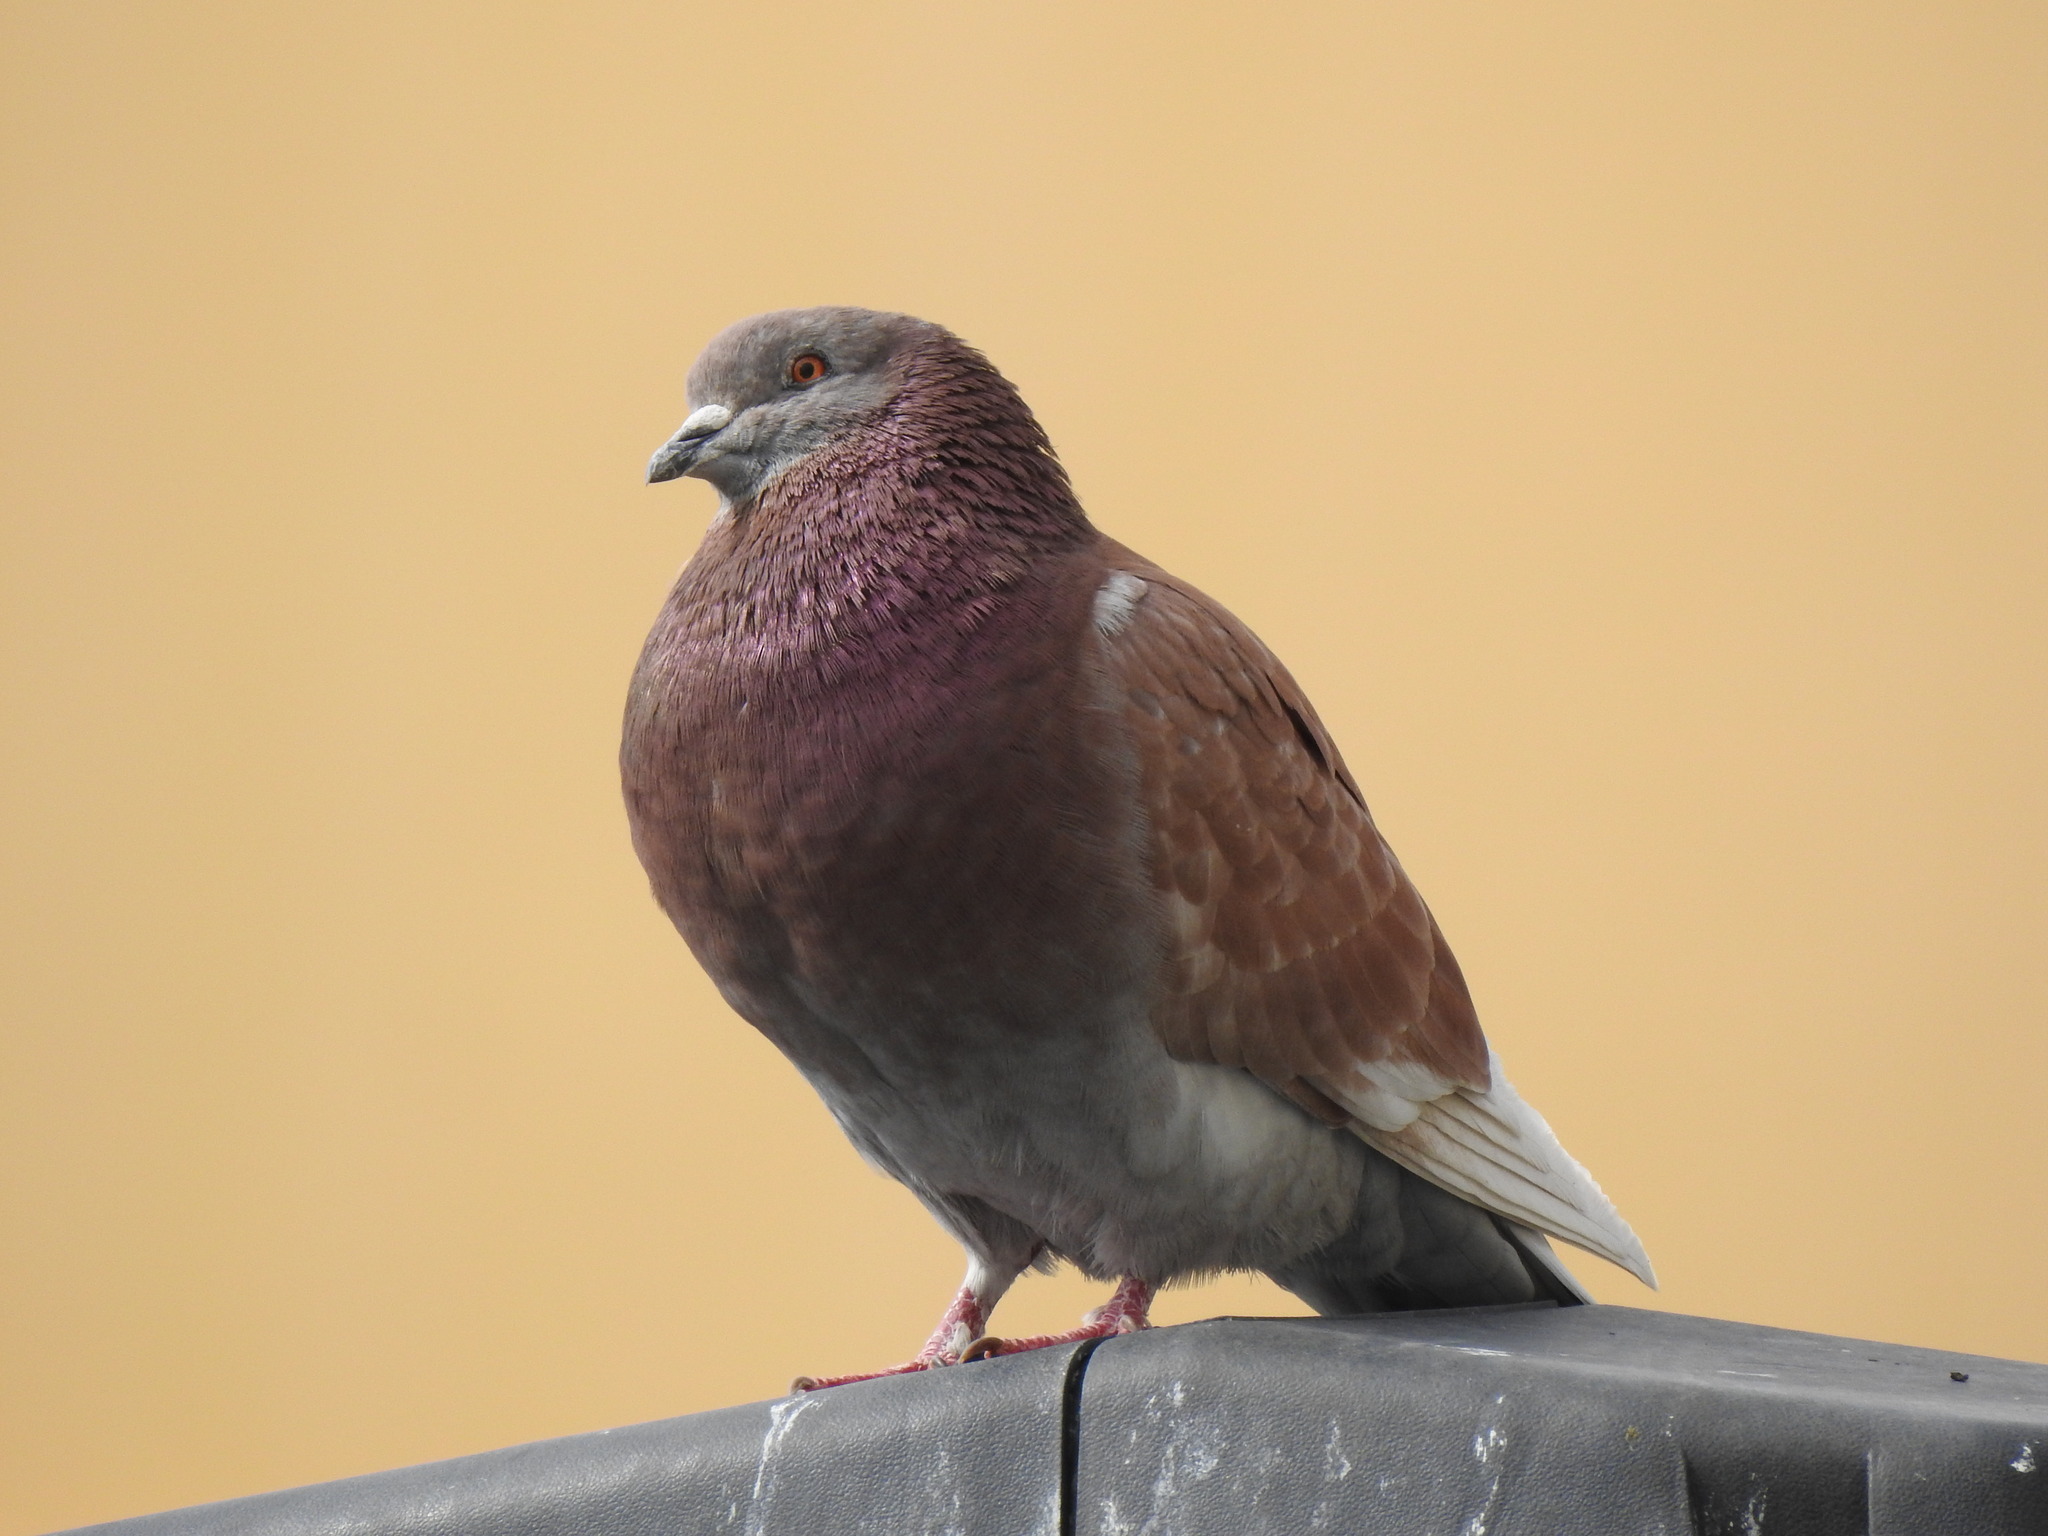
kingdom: Animalia
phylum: Chordata
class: Aves
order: Columbiformes
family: Columbidae
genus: Columba
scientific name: Columba livia
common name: Rock pigeon
